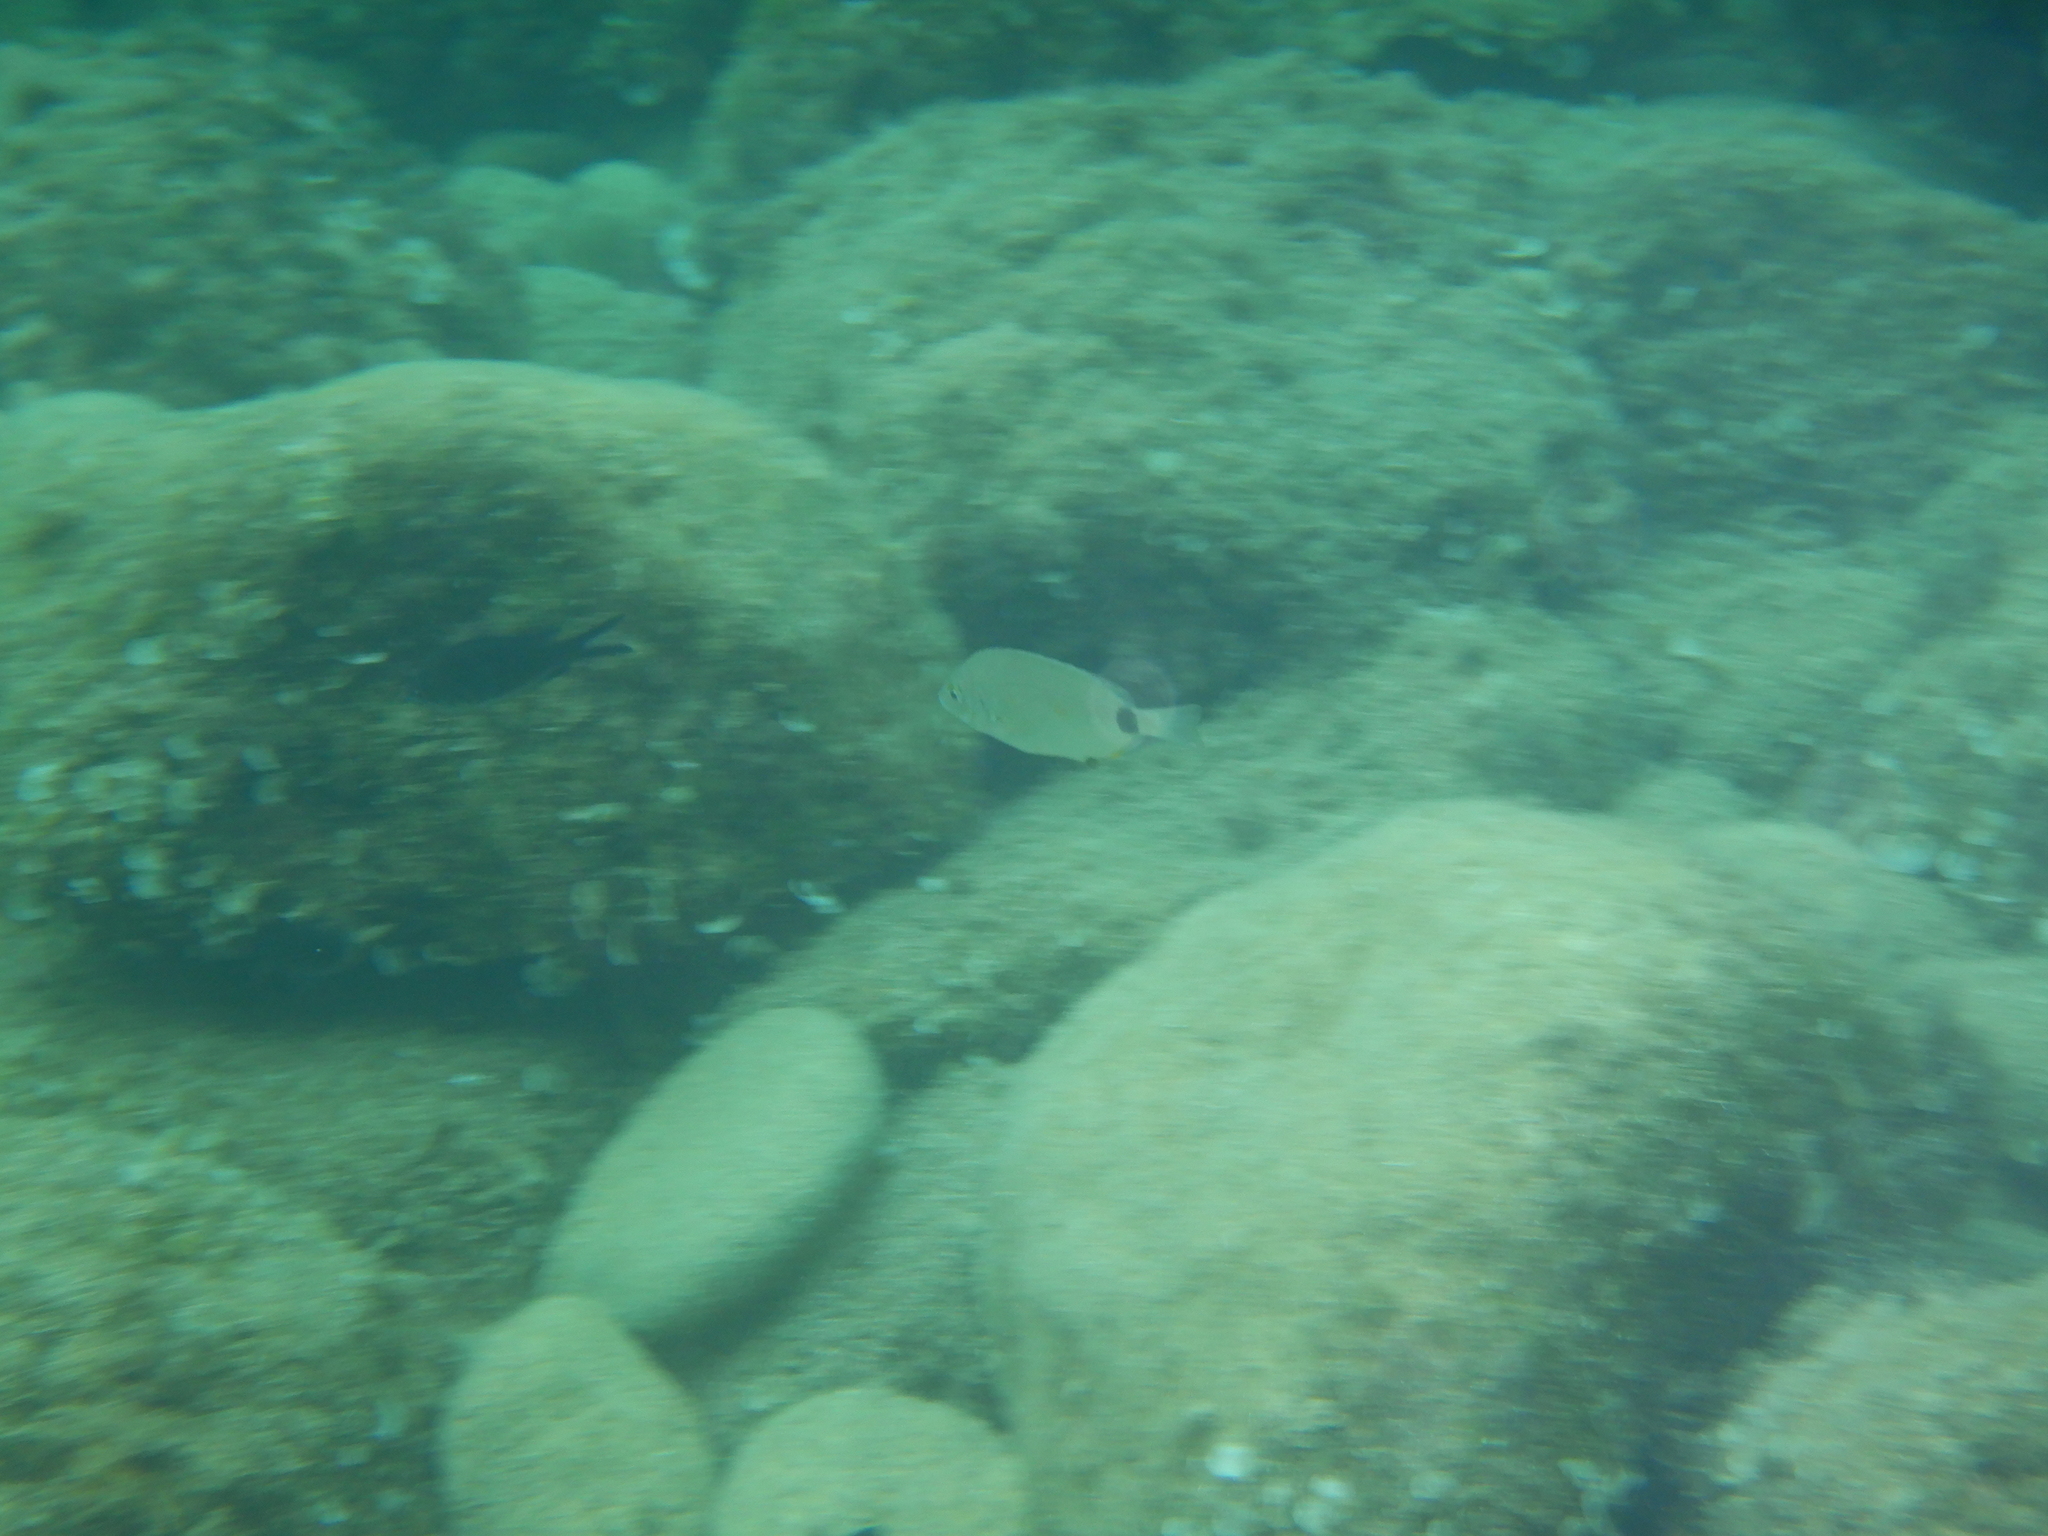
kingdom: Animalia
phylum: Chordata
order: Perciformes
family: Sparidae
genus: Diplodus
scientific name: Diplodus annularis
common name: Annular seabream
